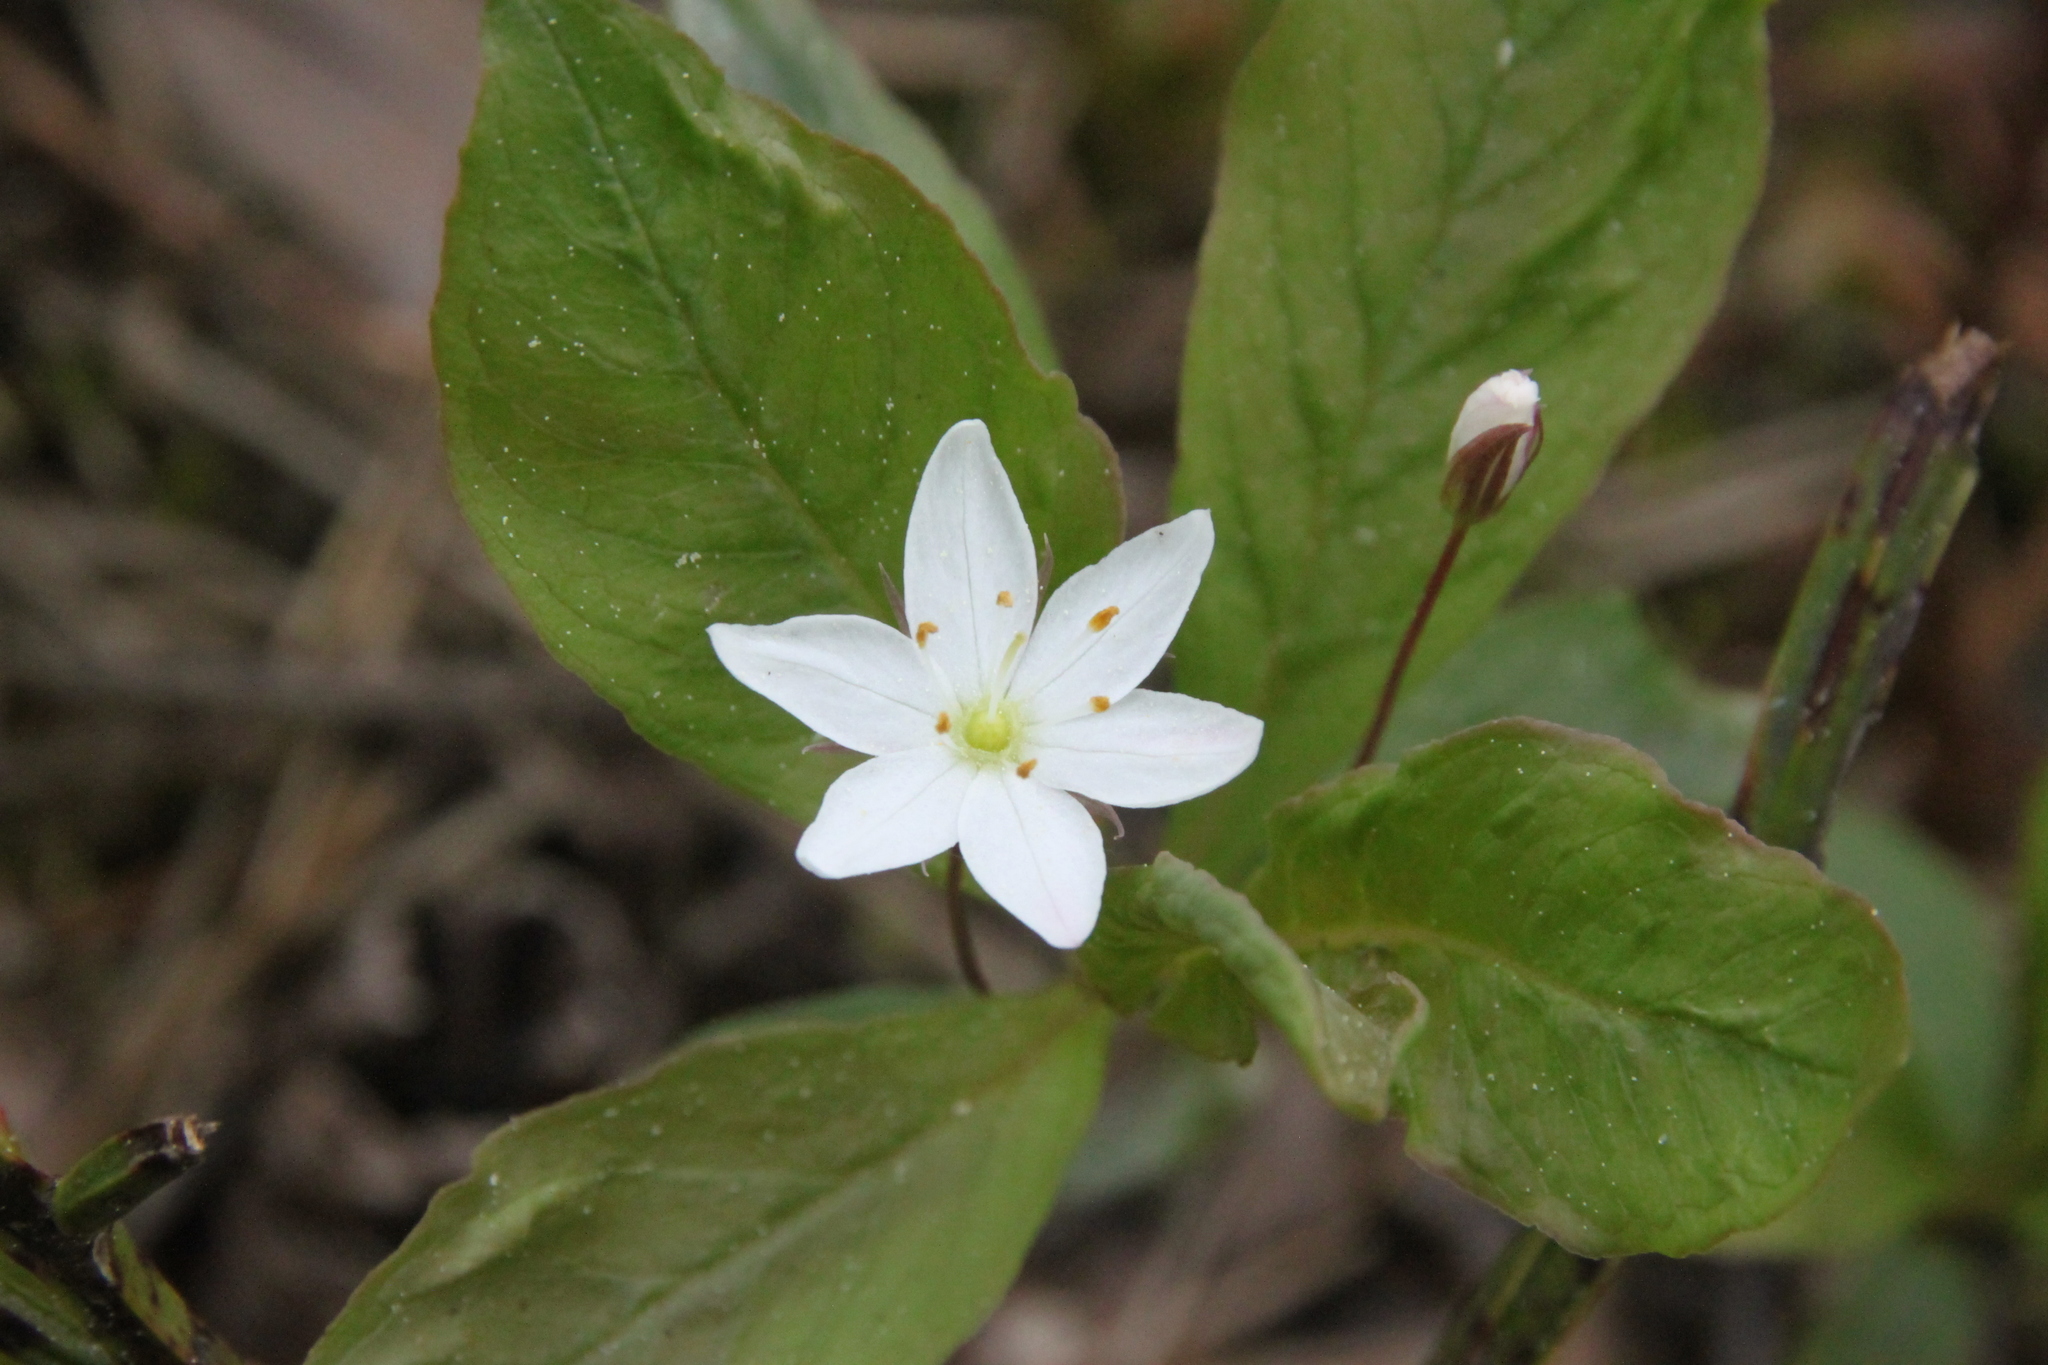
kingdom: Plantae
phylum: Tracheophyta
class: Magnoliopsida
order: Ericales
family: Primulaceae
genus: Lysimachia
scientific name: Lysimachia europaea
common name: Arctic starflower
